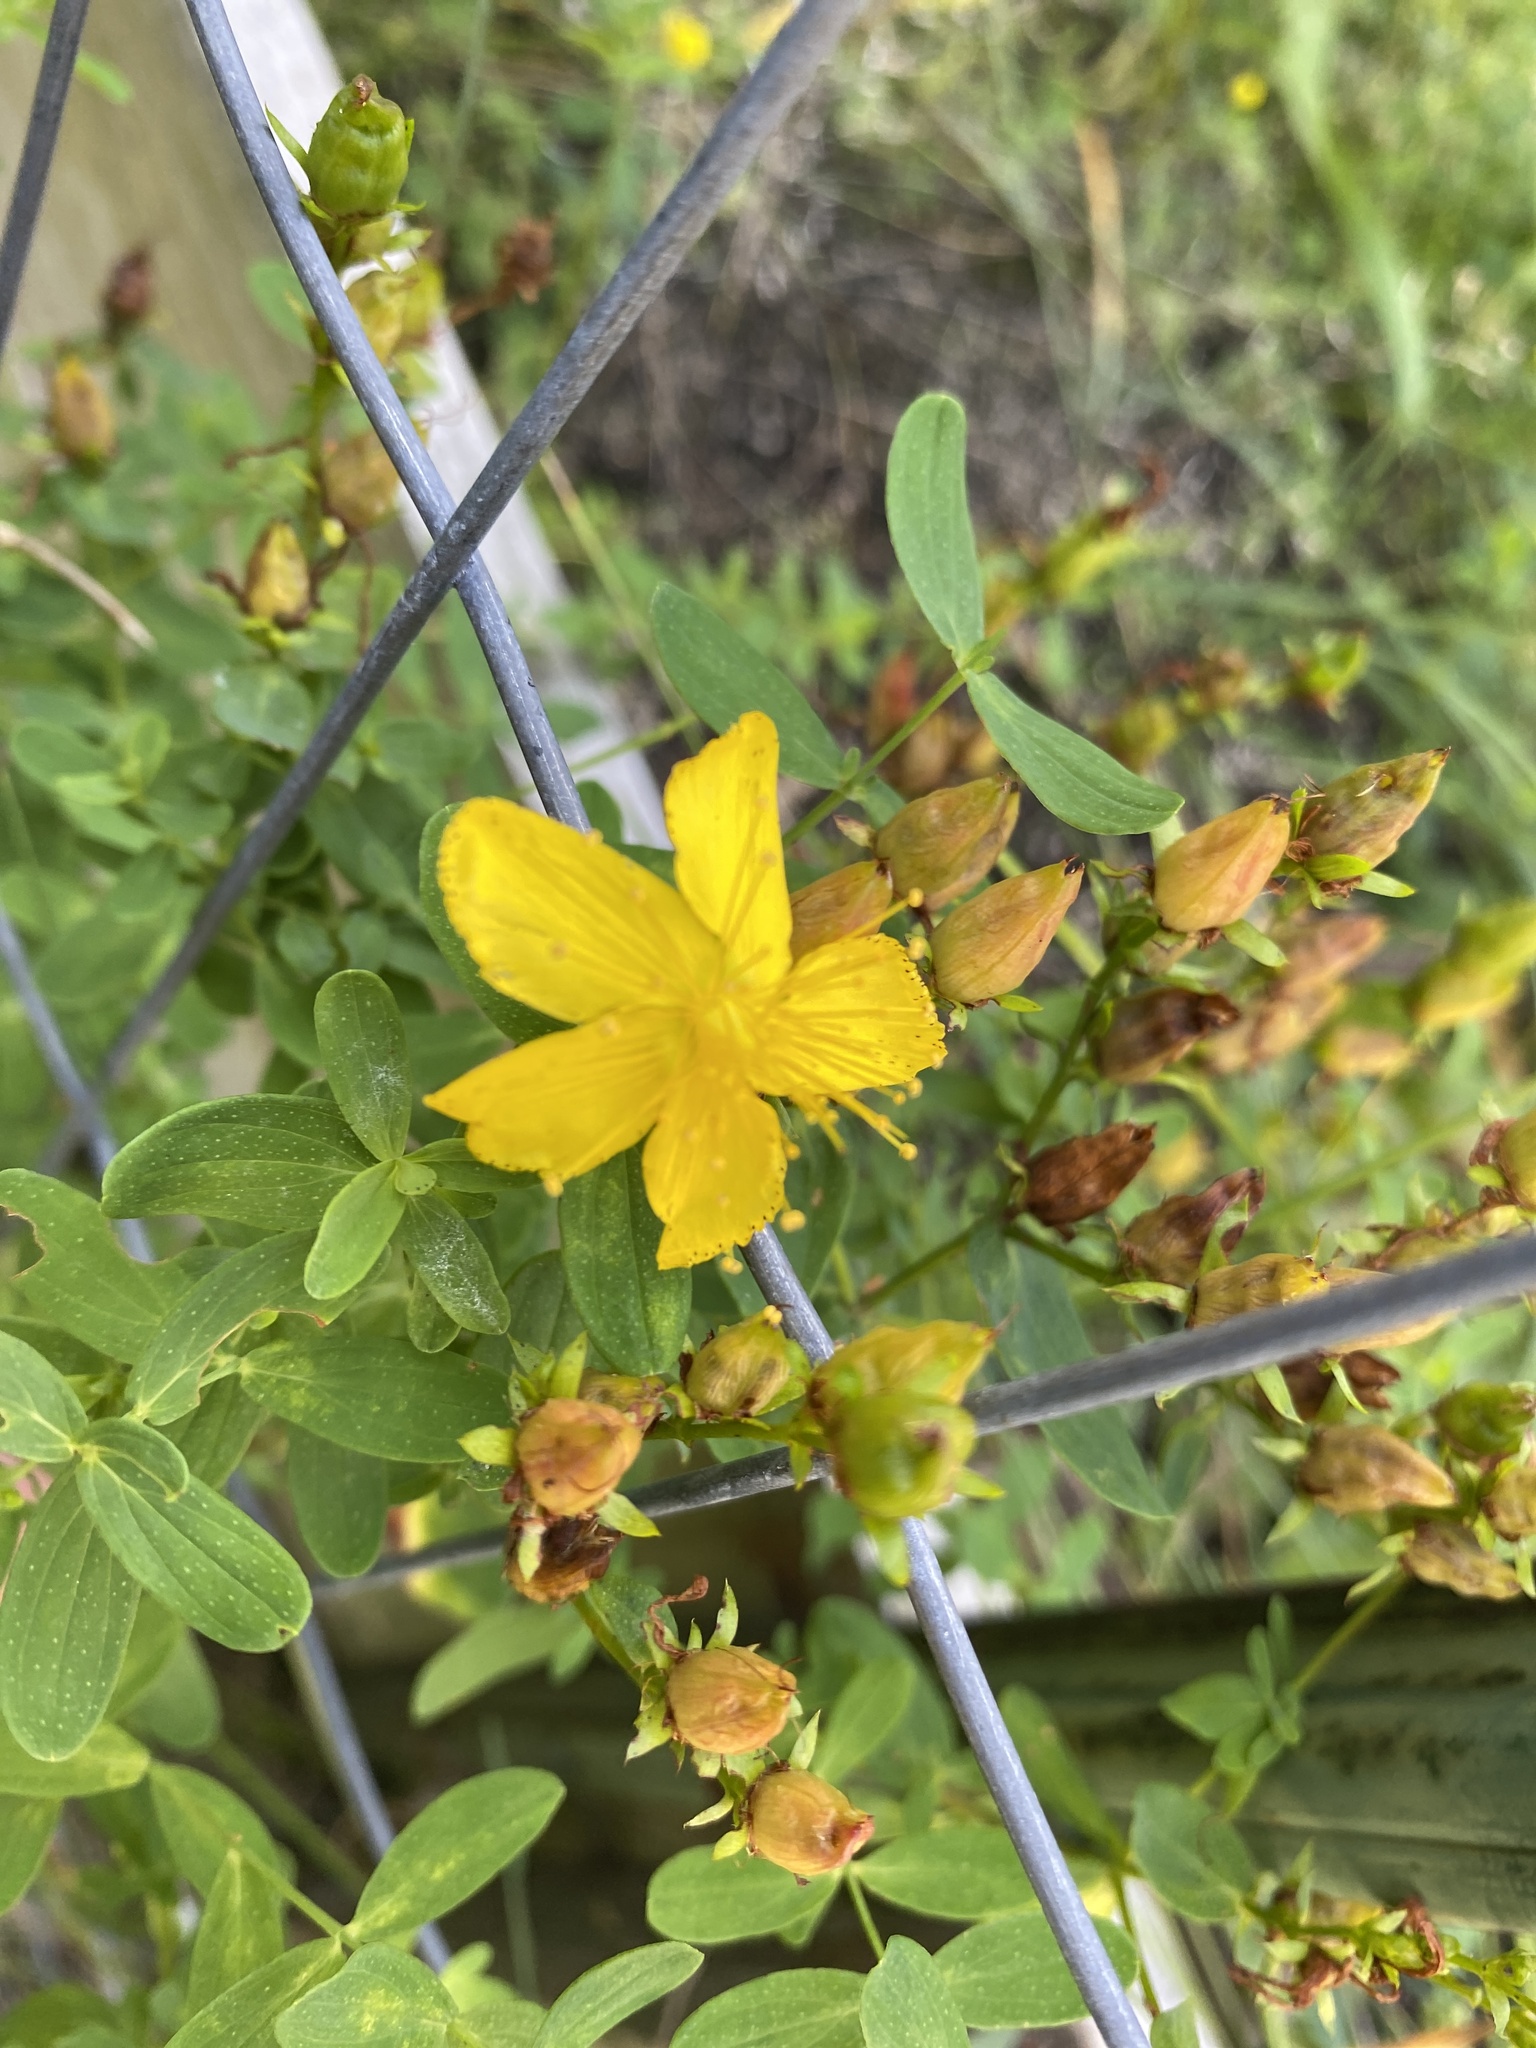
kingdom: Plantae
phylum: Tracheophyta
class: Magnoliopsida
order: Malpighiales
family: Hypericaceae
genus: Hypericum
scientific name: Hypericum perforatum
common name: Common st. johnswort
